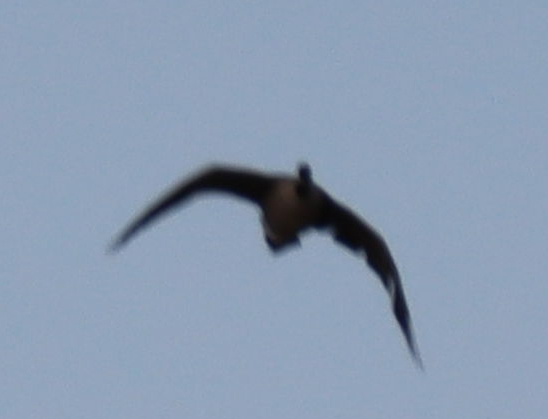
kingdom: Animalia
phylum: Chordata
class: Aves
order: Anseriformes
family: Anatidae
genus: Branta
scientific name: Branta canadensis
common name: Canada goose
